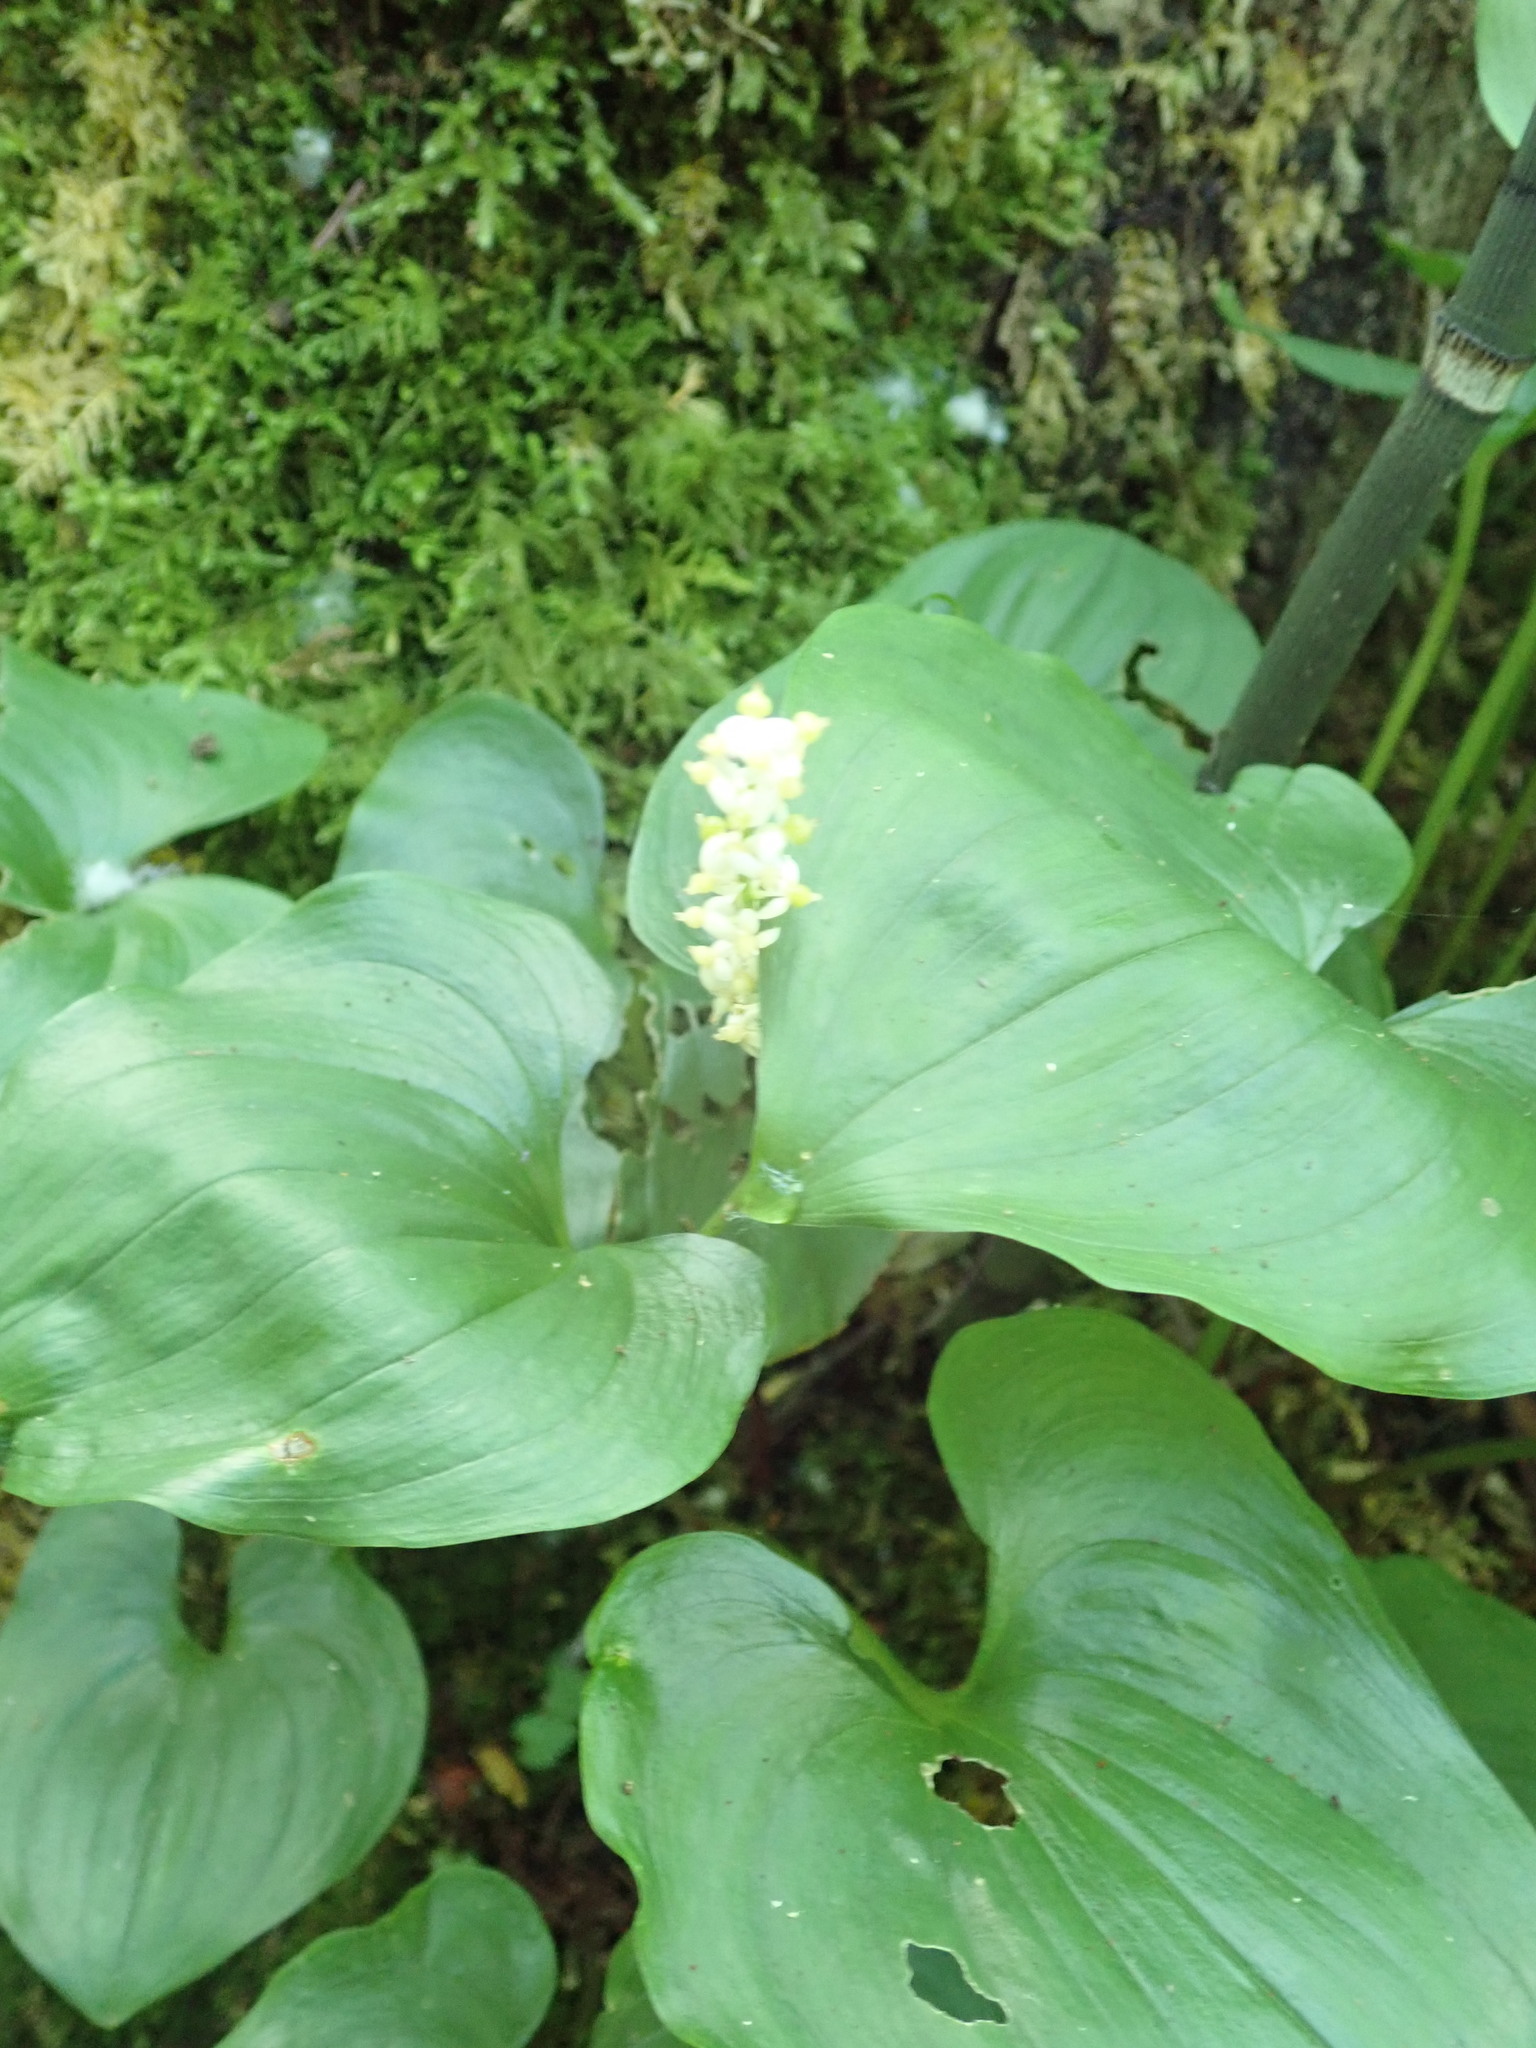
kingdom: Plantae
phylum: Tracheophyta
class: Liliopsida
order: Asparagales
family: Asparagaceae
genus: Maianthemum
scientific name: Maianthemum dilatatum
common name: False lily-of-the-valley
